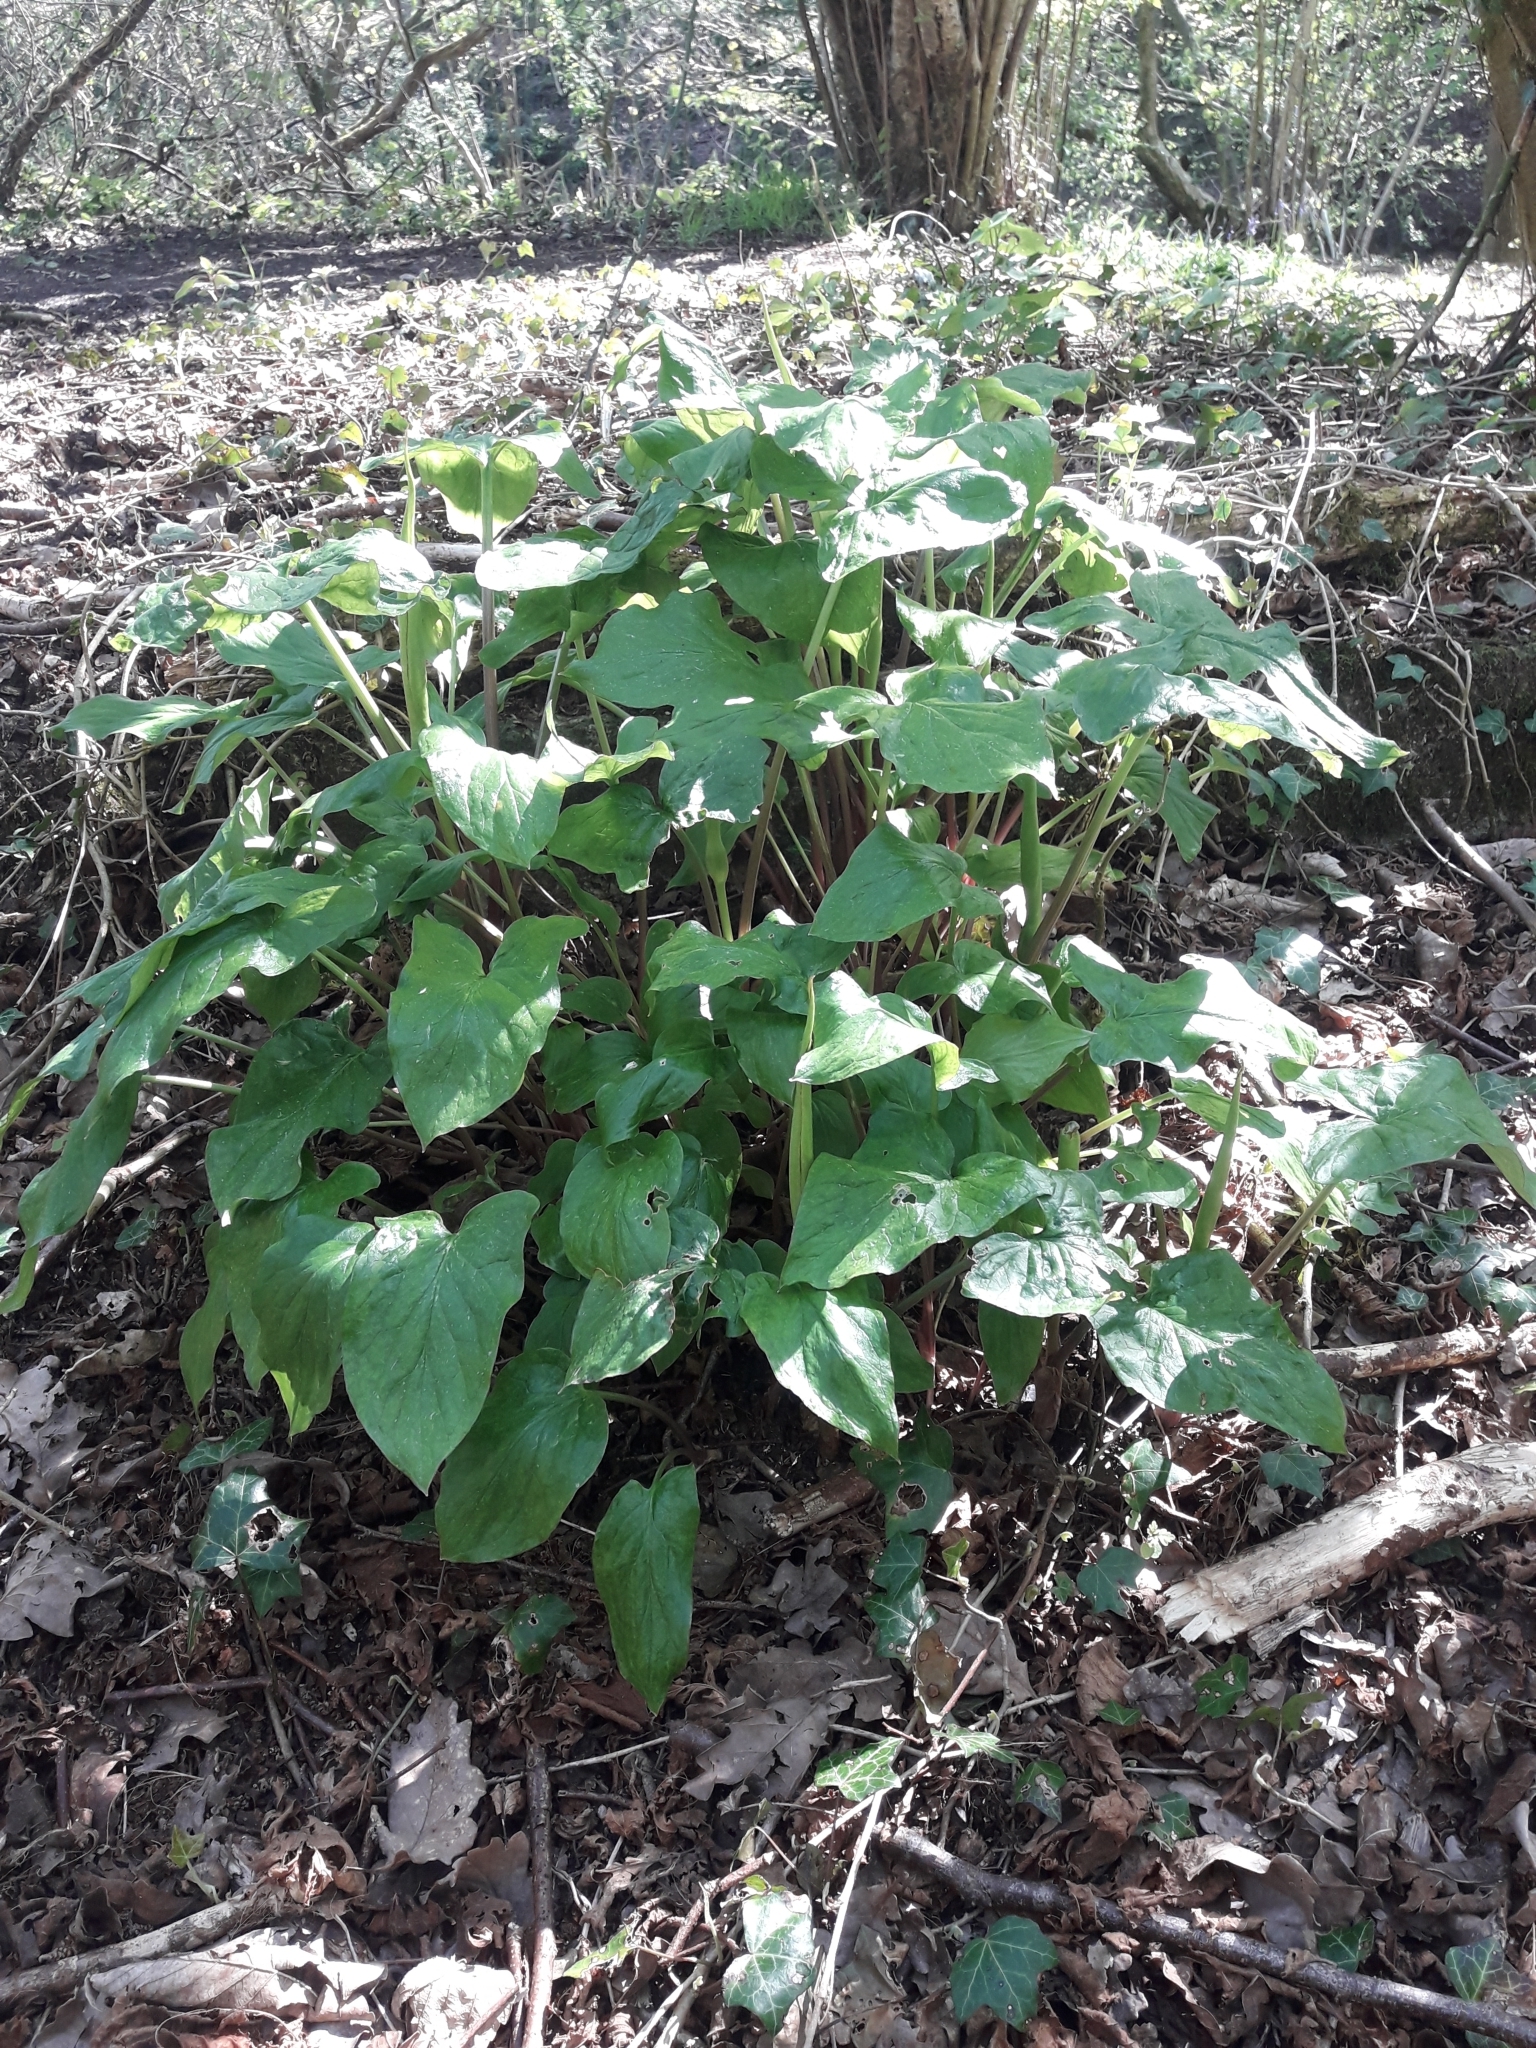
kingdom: Plantae
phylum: Tracheophyta
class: Liliopsida
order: Alismatales
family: Araceae
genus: Arum
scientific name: Arum maculatum
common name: Lords-and-ladies
